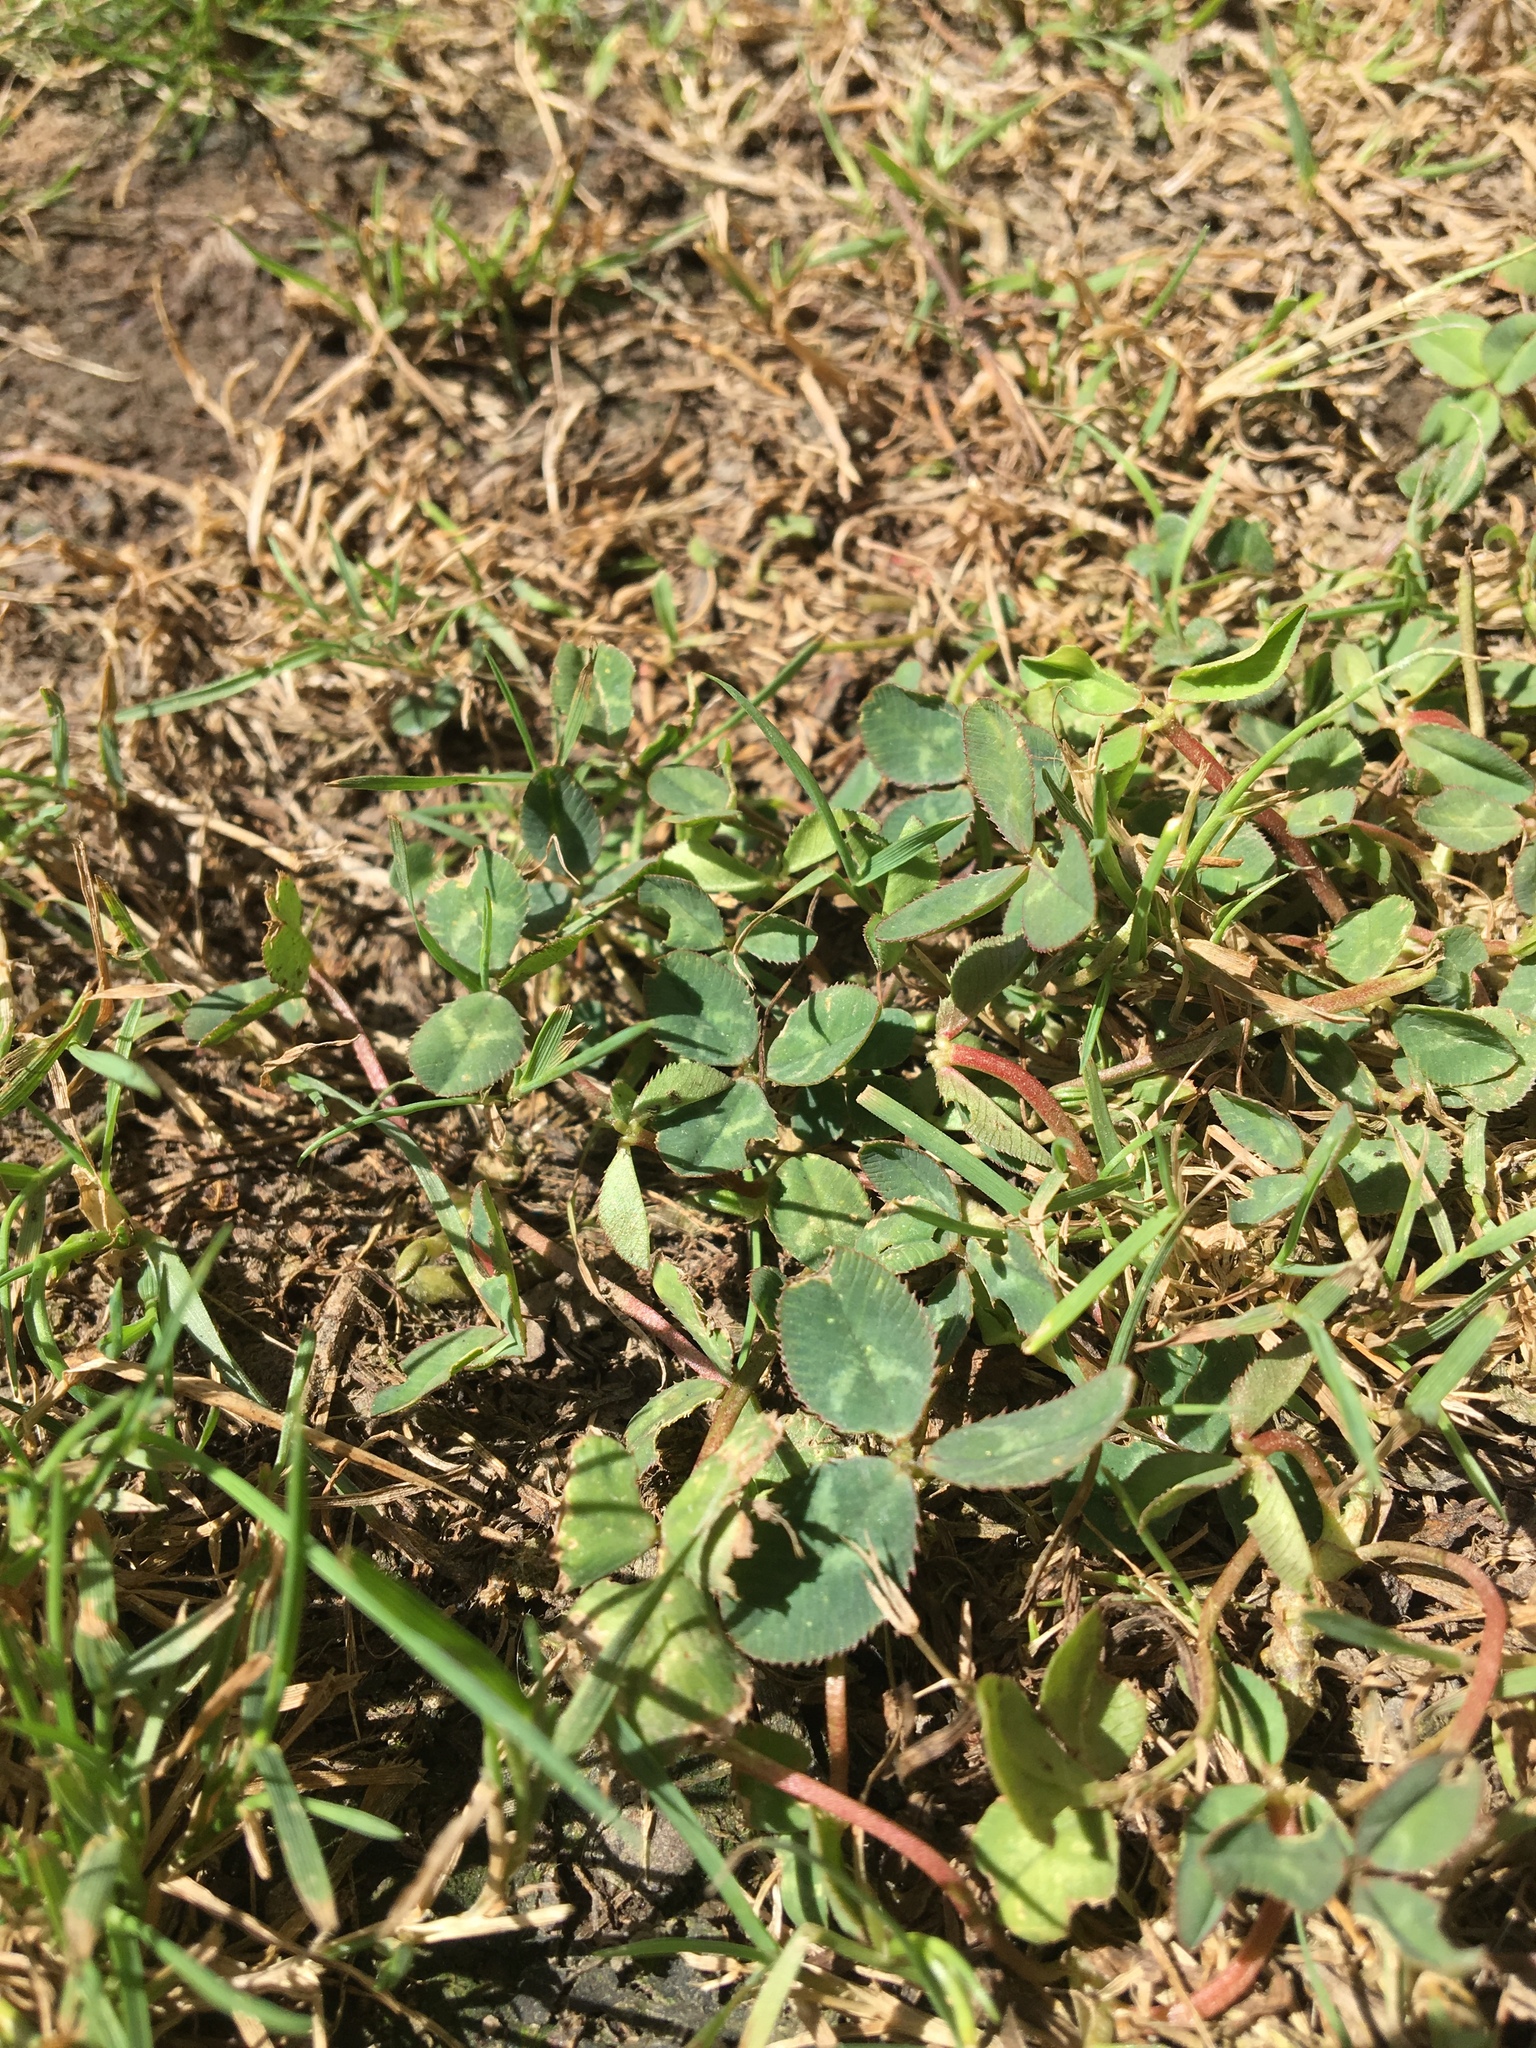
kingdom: Plantae
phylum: Tracheophyta
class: Magnoliopsida
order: Fabales
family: Fabaceae
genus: Trifolium
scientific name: Trifolium repens
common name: White clover
